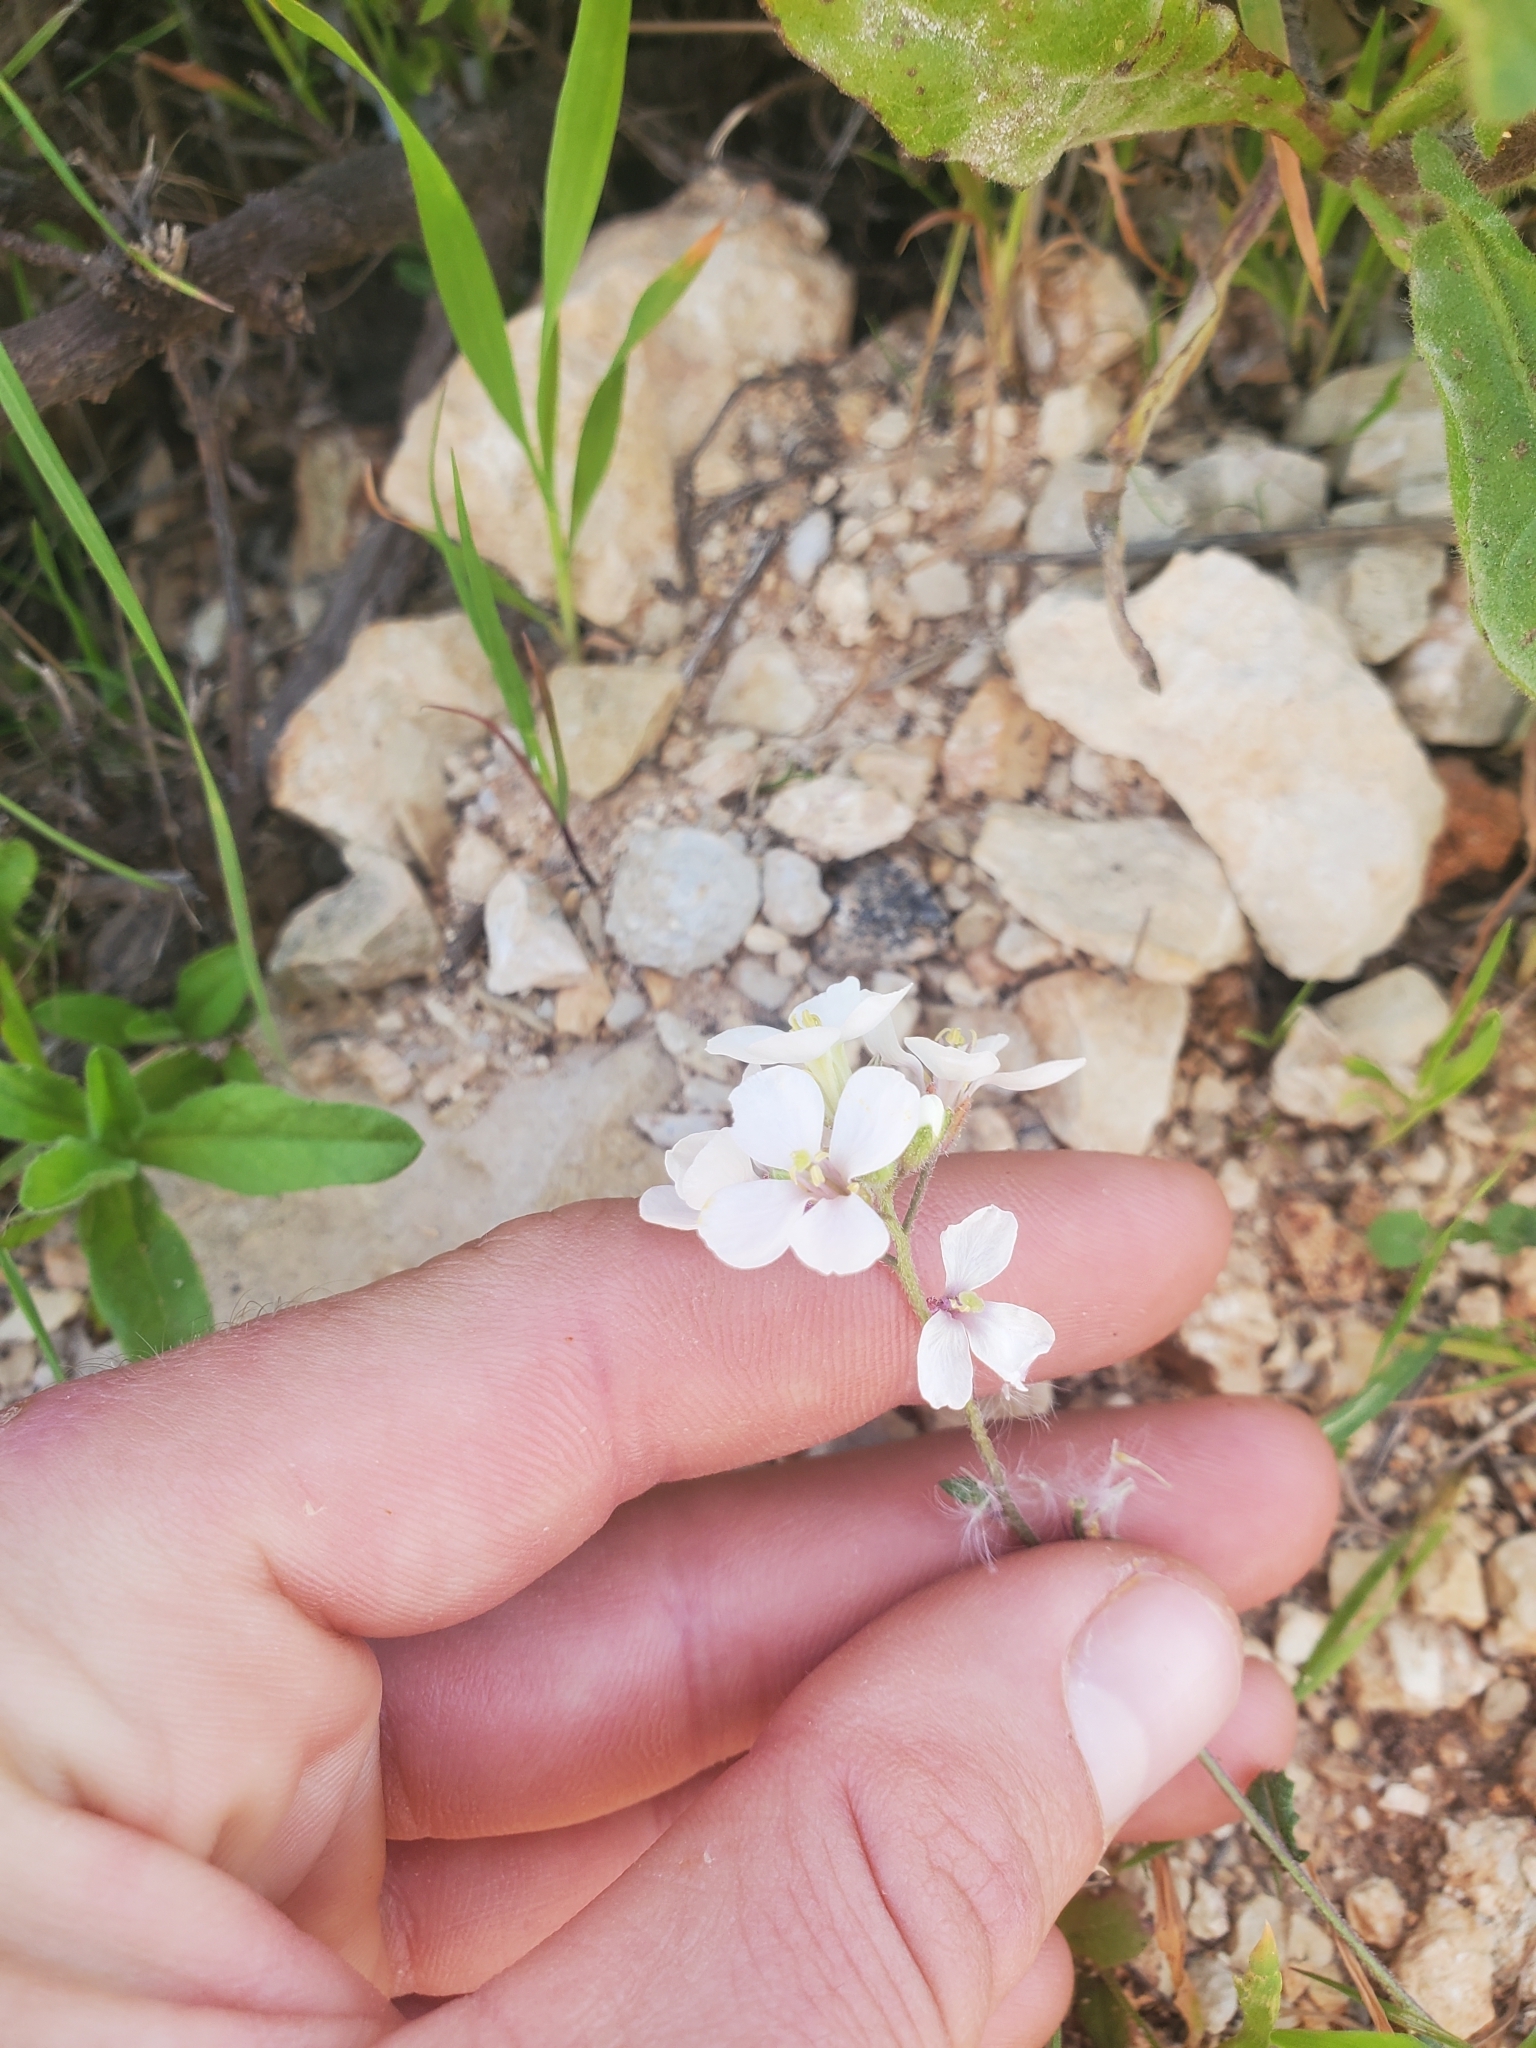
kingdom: Plantae
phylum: Tracheophyta
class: Magnoliopsida
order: Brassicales
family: Brassicaceae
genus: Diplotaxis
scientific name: Diplotaxis erucoides
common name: White rocket
